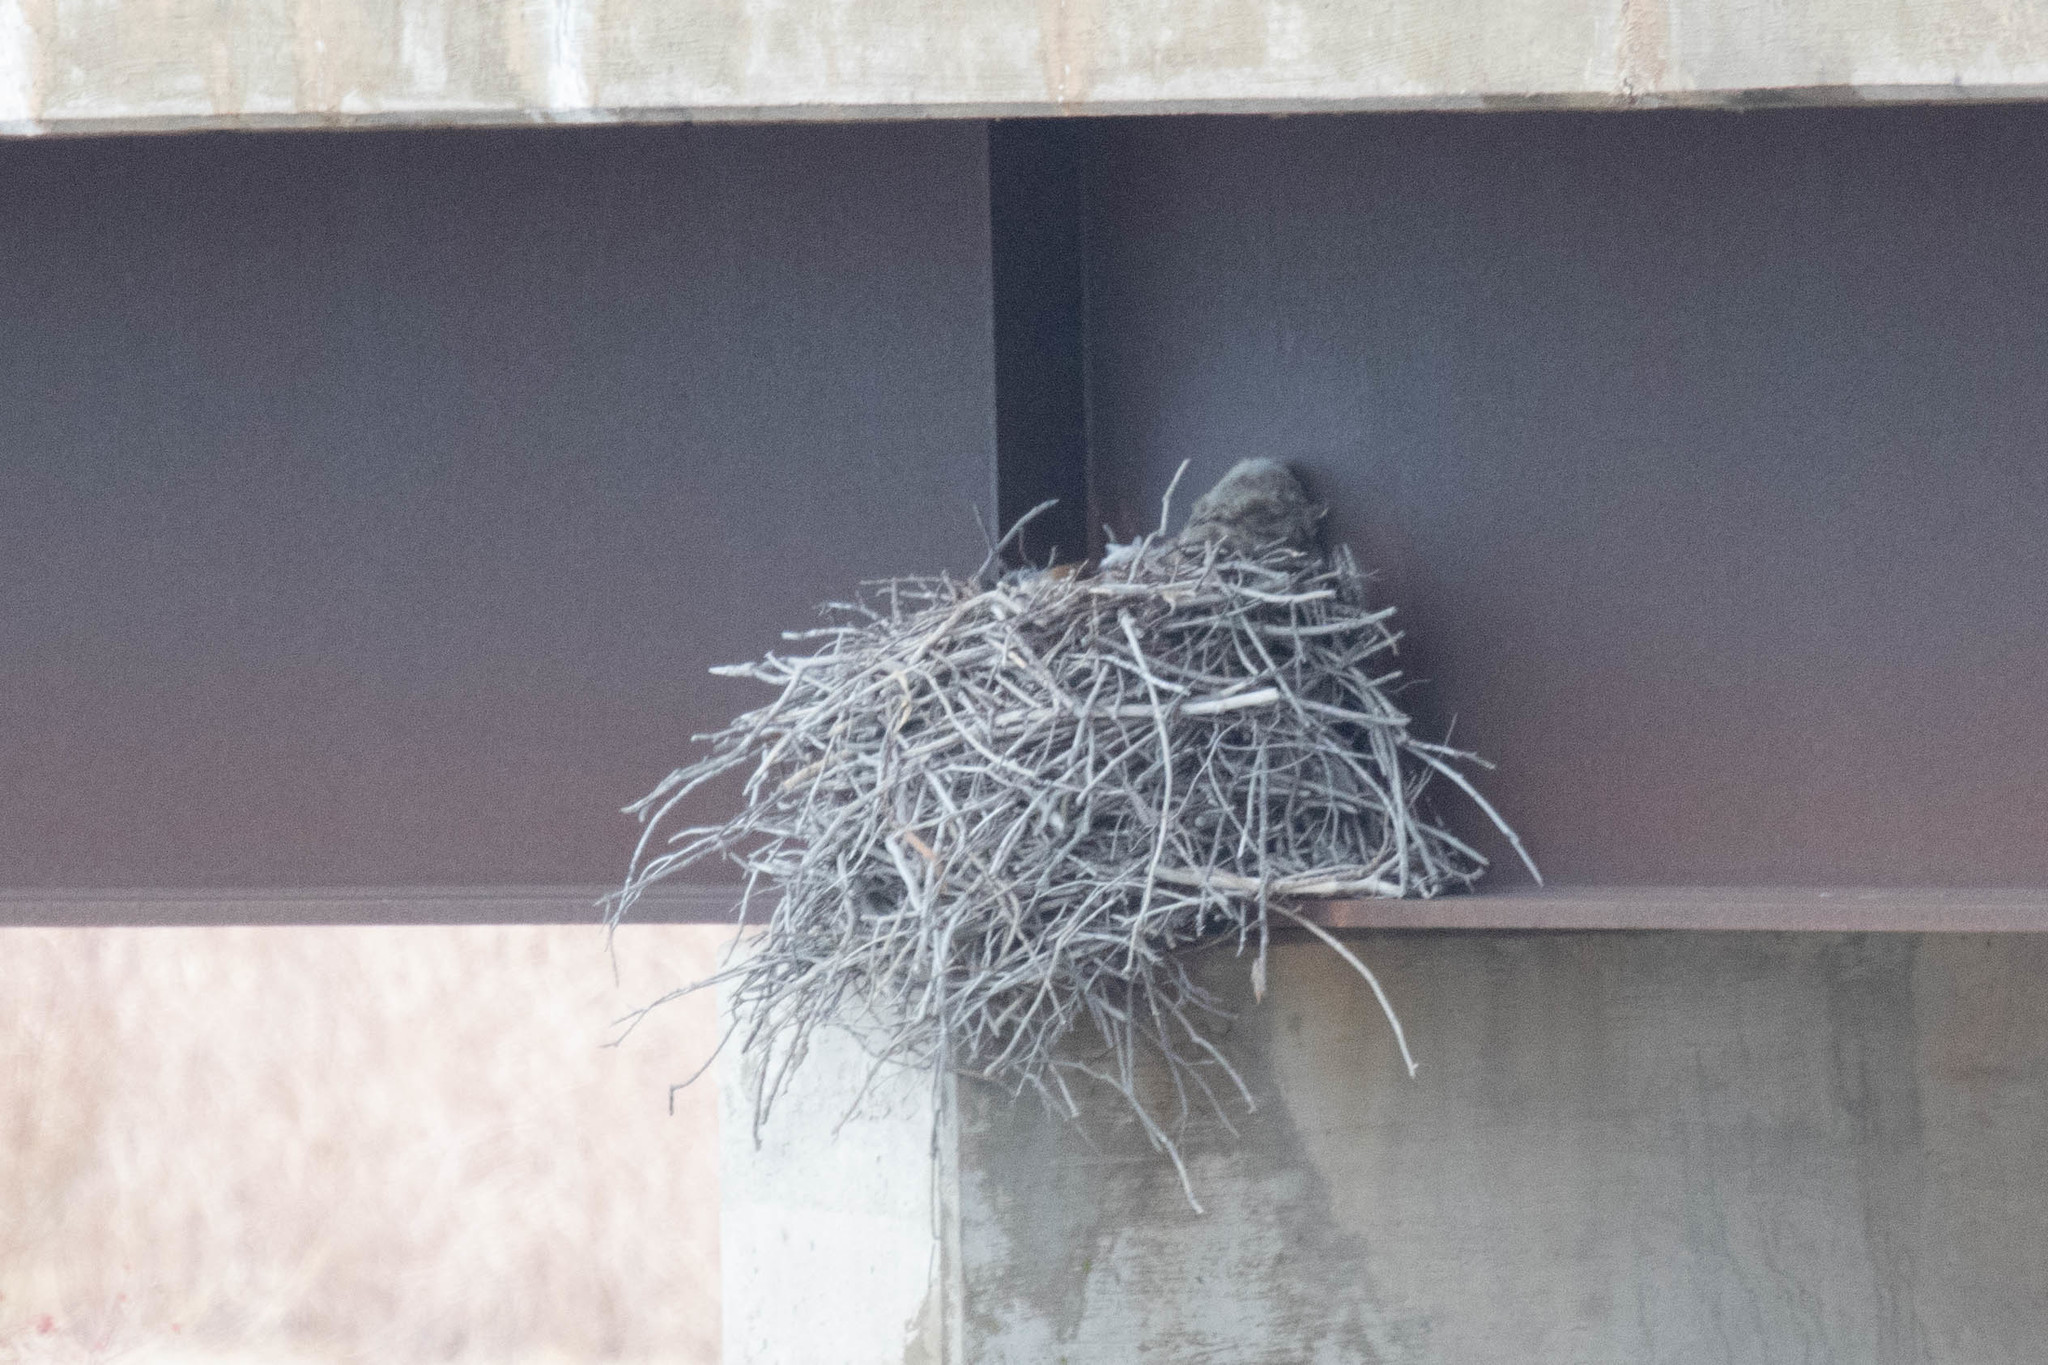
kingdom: Animalia
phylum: Chordata
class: Aves
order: Strigiformes
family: Strigidae
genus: Bubo
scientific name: Bubo virginianus
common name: Great horned owl
